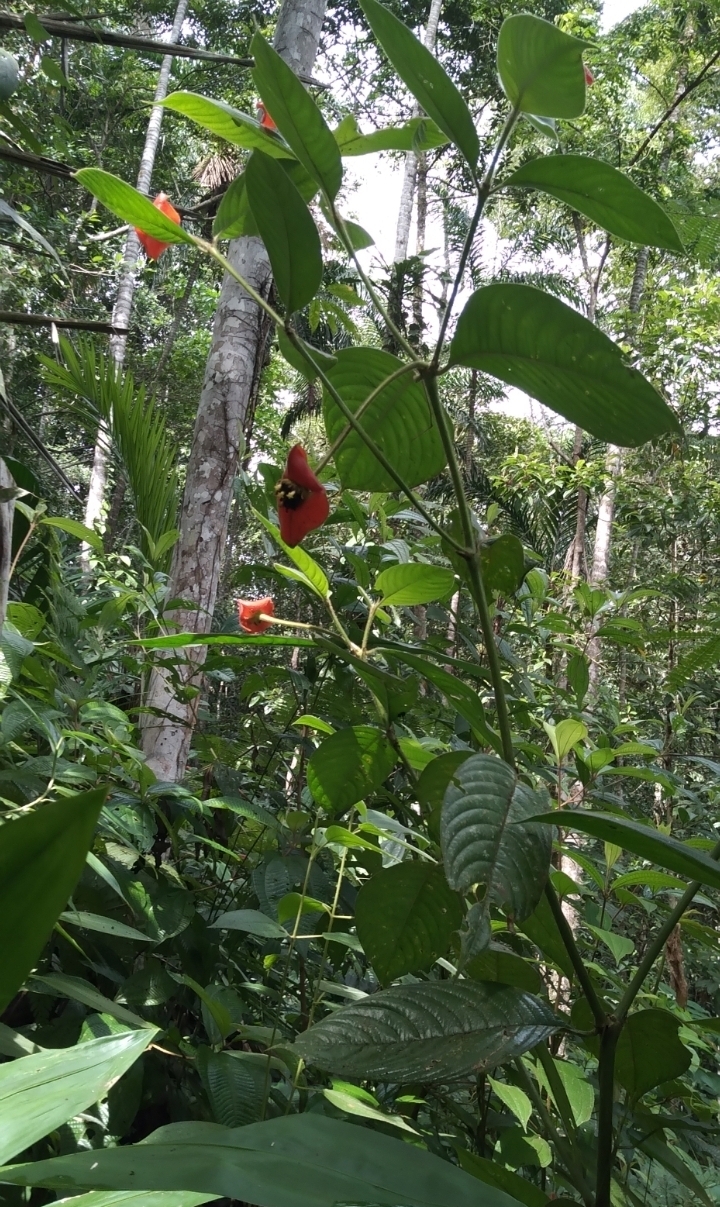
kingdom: Plantae
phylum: Tracheophyta
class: Magnoliopsida
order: Gentianales
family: Rubiaceae
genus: Palicourea
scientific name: Palicourea tomentosa
